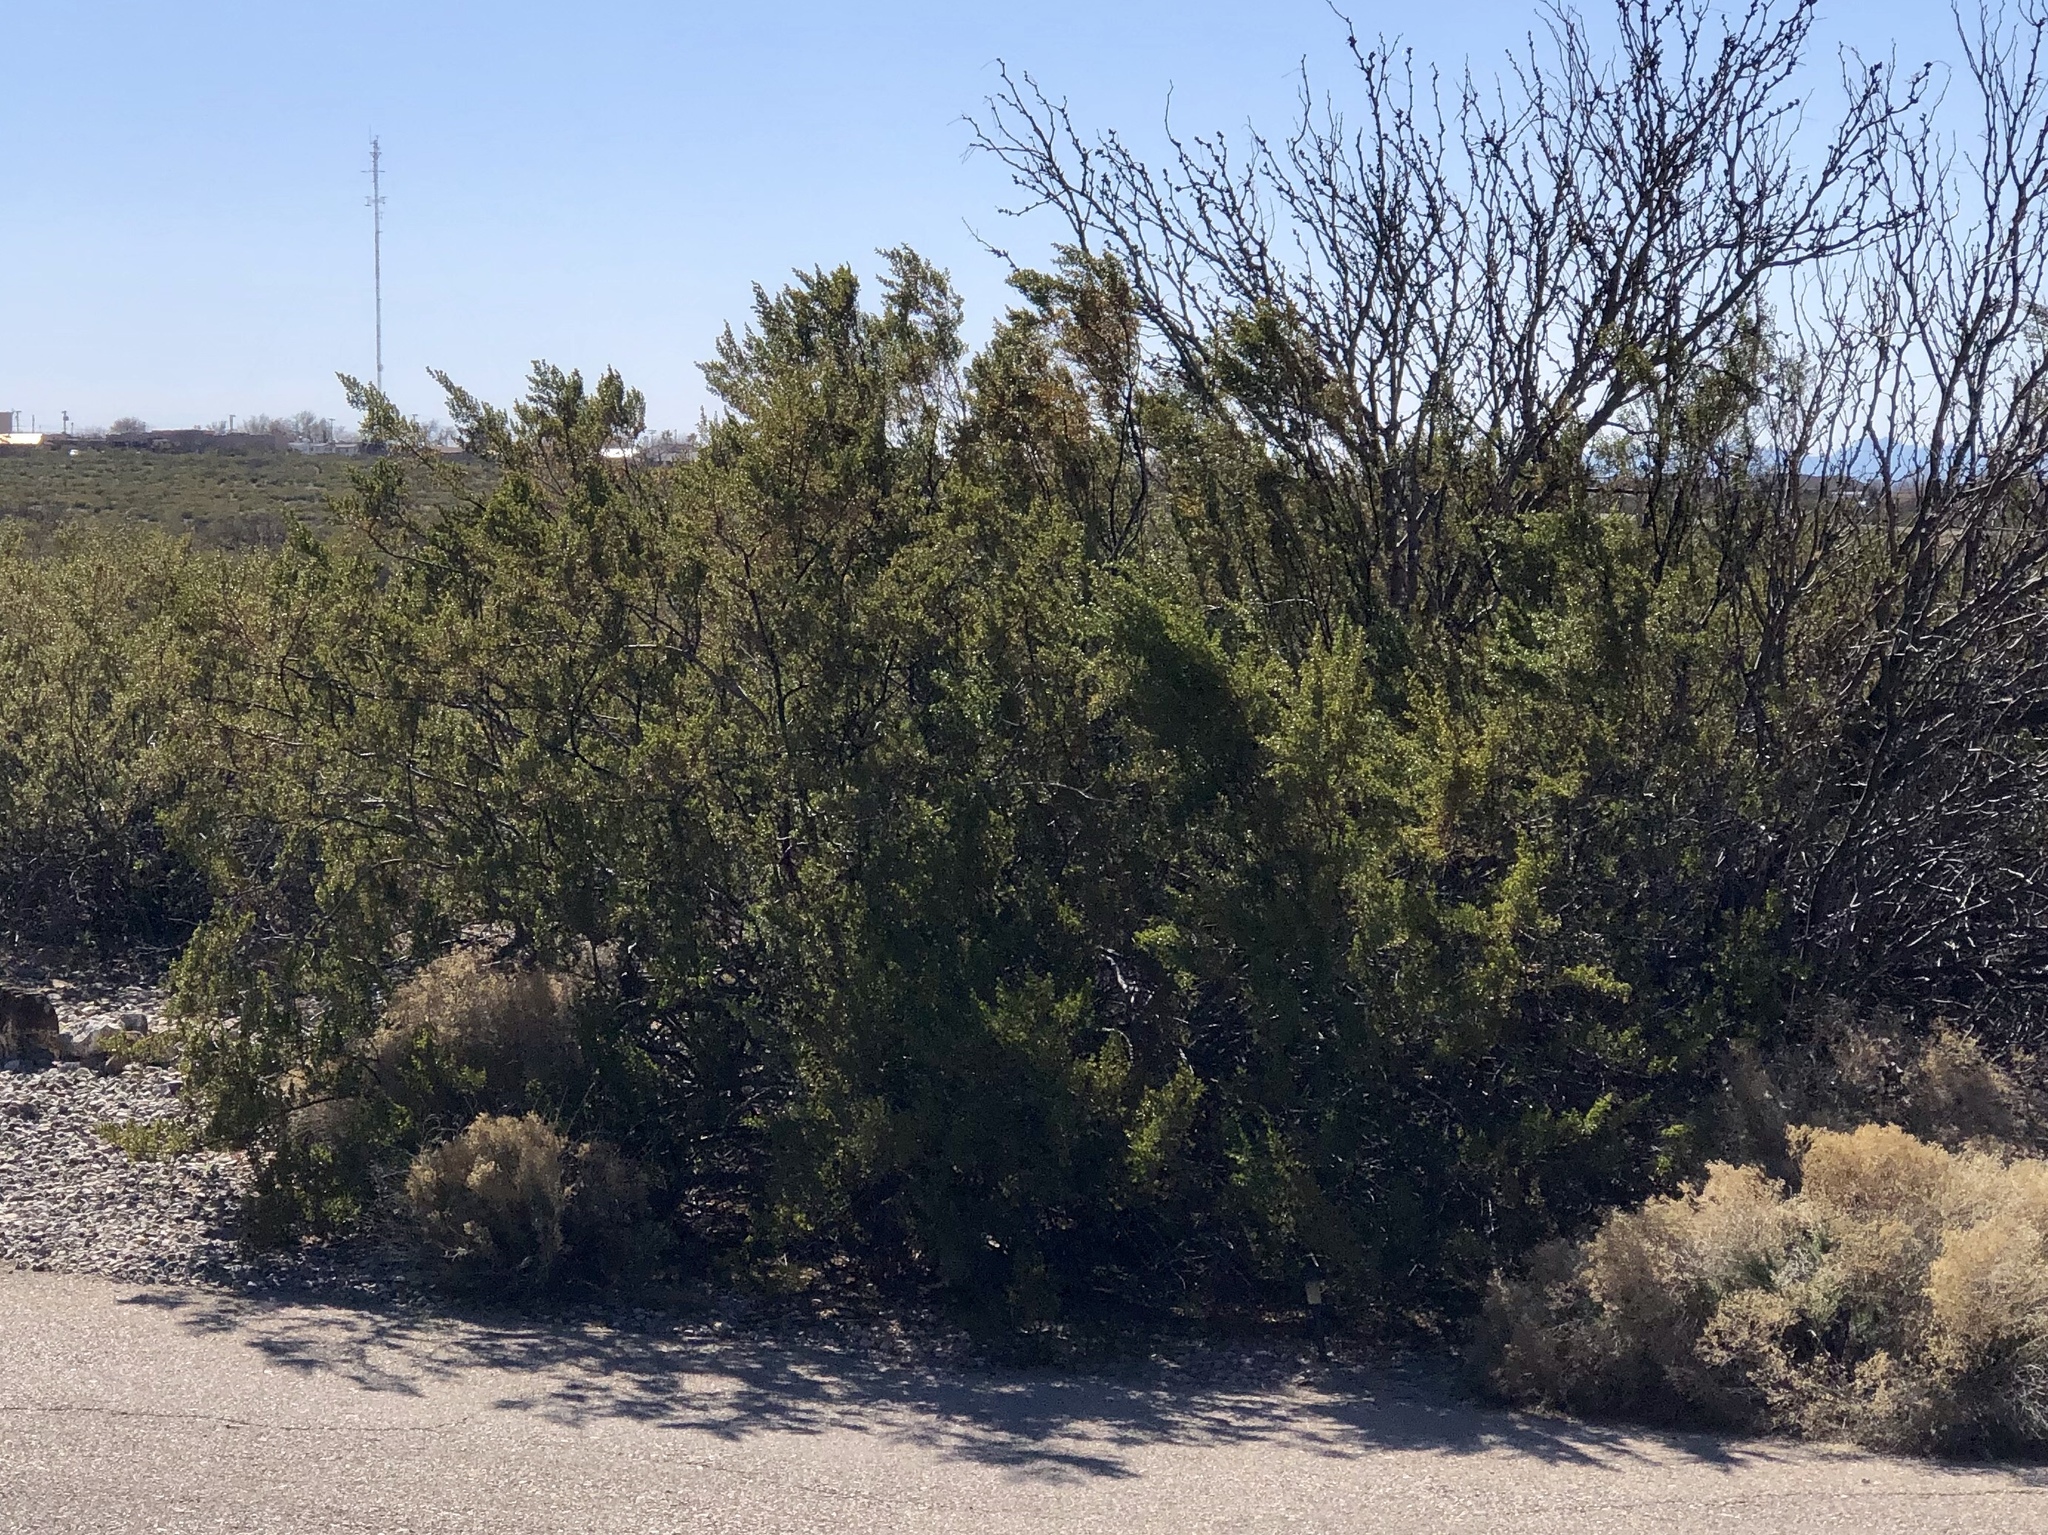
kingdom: Plantae
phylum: Tracheophyta
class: Magnoliopsida
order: Zygophyllales
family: Zygophyllaceae
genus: Larrea
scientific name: Larrea tridentata
